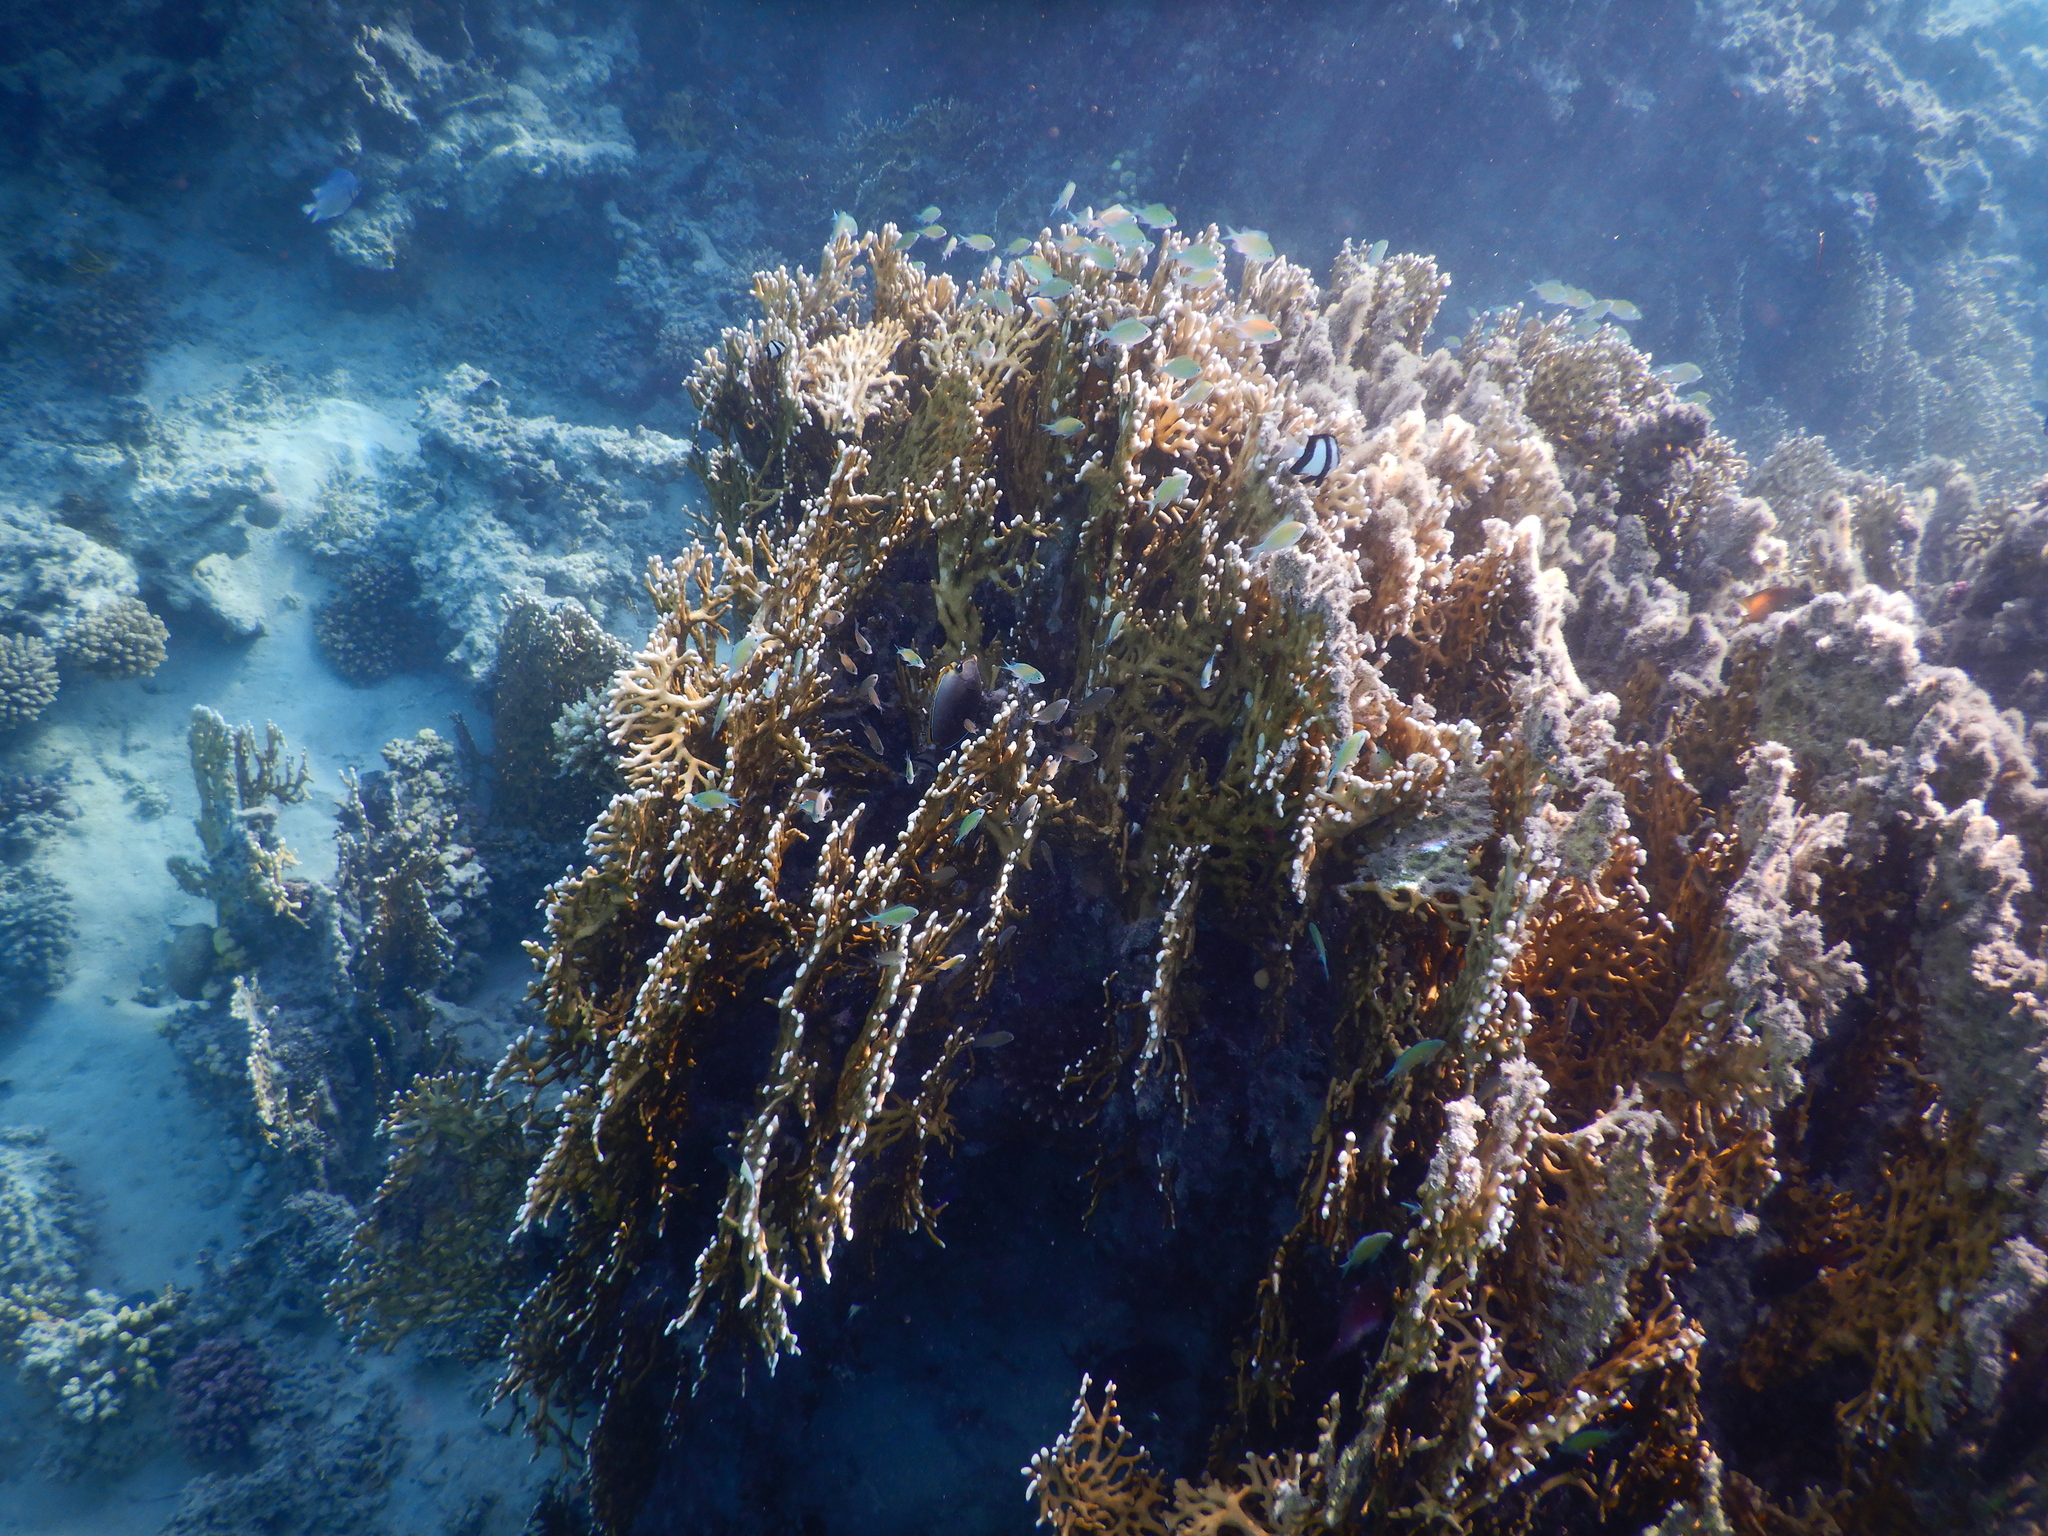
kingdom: Animalia
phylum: Cnidaria
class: Hydrozoa
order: Anthoathecata
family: Milleporidae
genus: Millepora
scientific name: Millepora dichotoma
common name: Ramified fire coral
